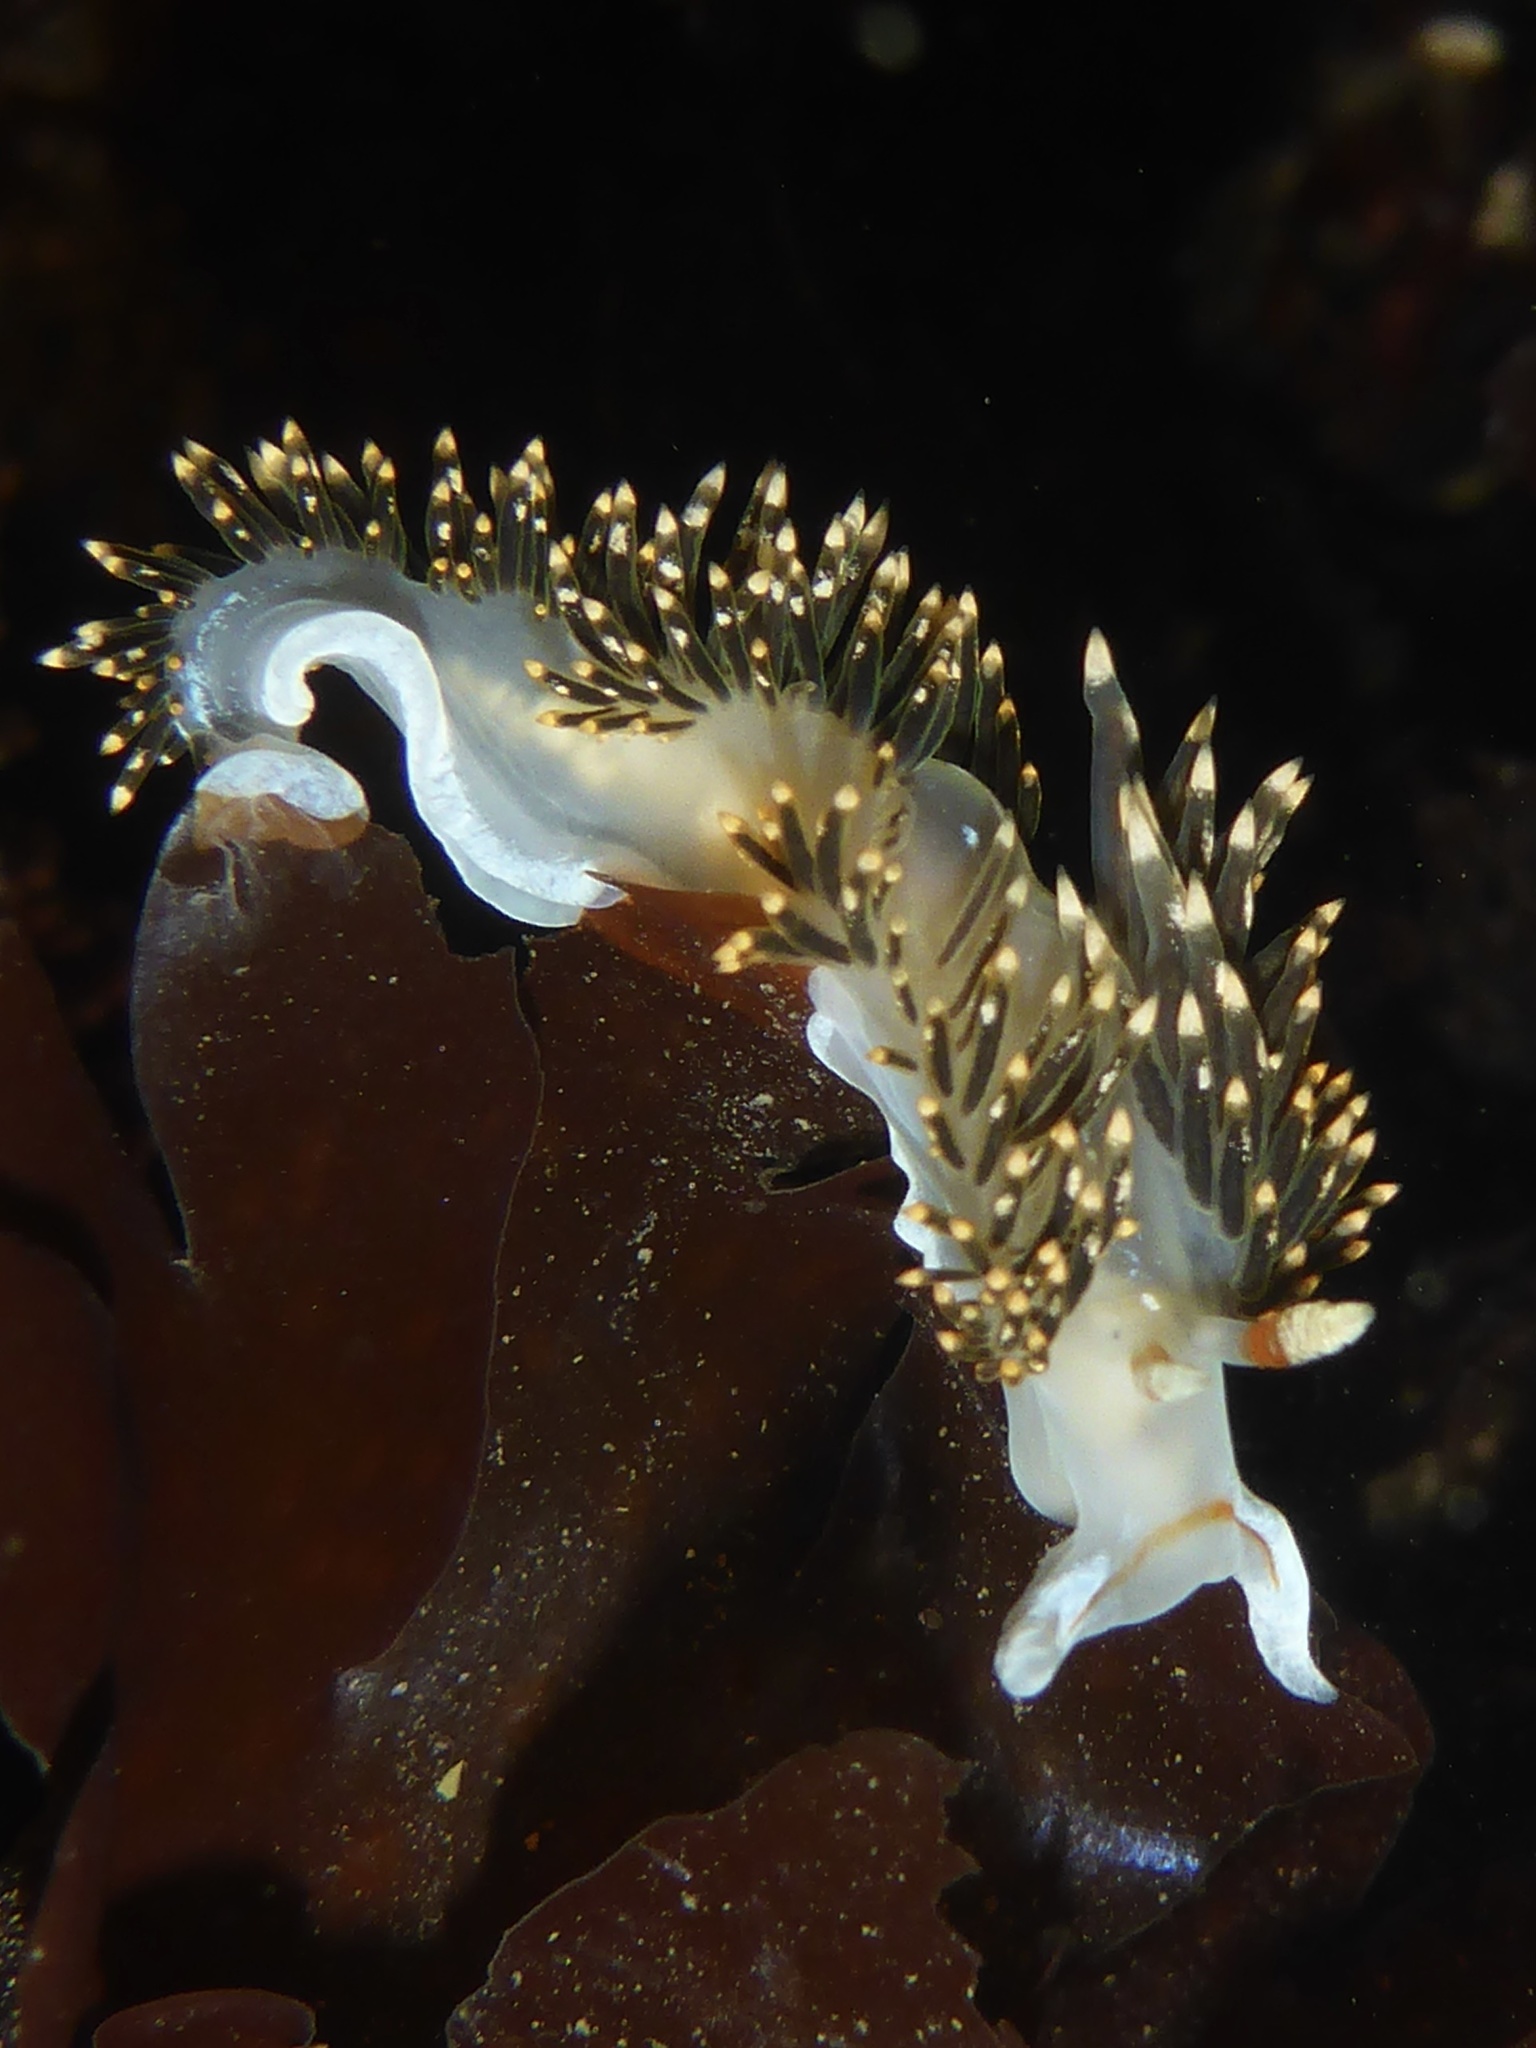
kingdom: Animalia
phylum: Mollusca
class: Gastropoda
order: Nudibranchia
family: Facelinidae
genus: Phidiana
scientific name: Phidiana hiltoni
